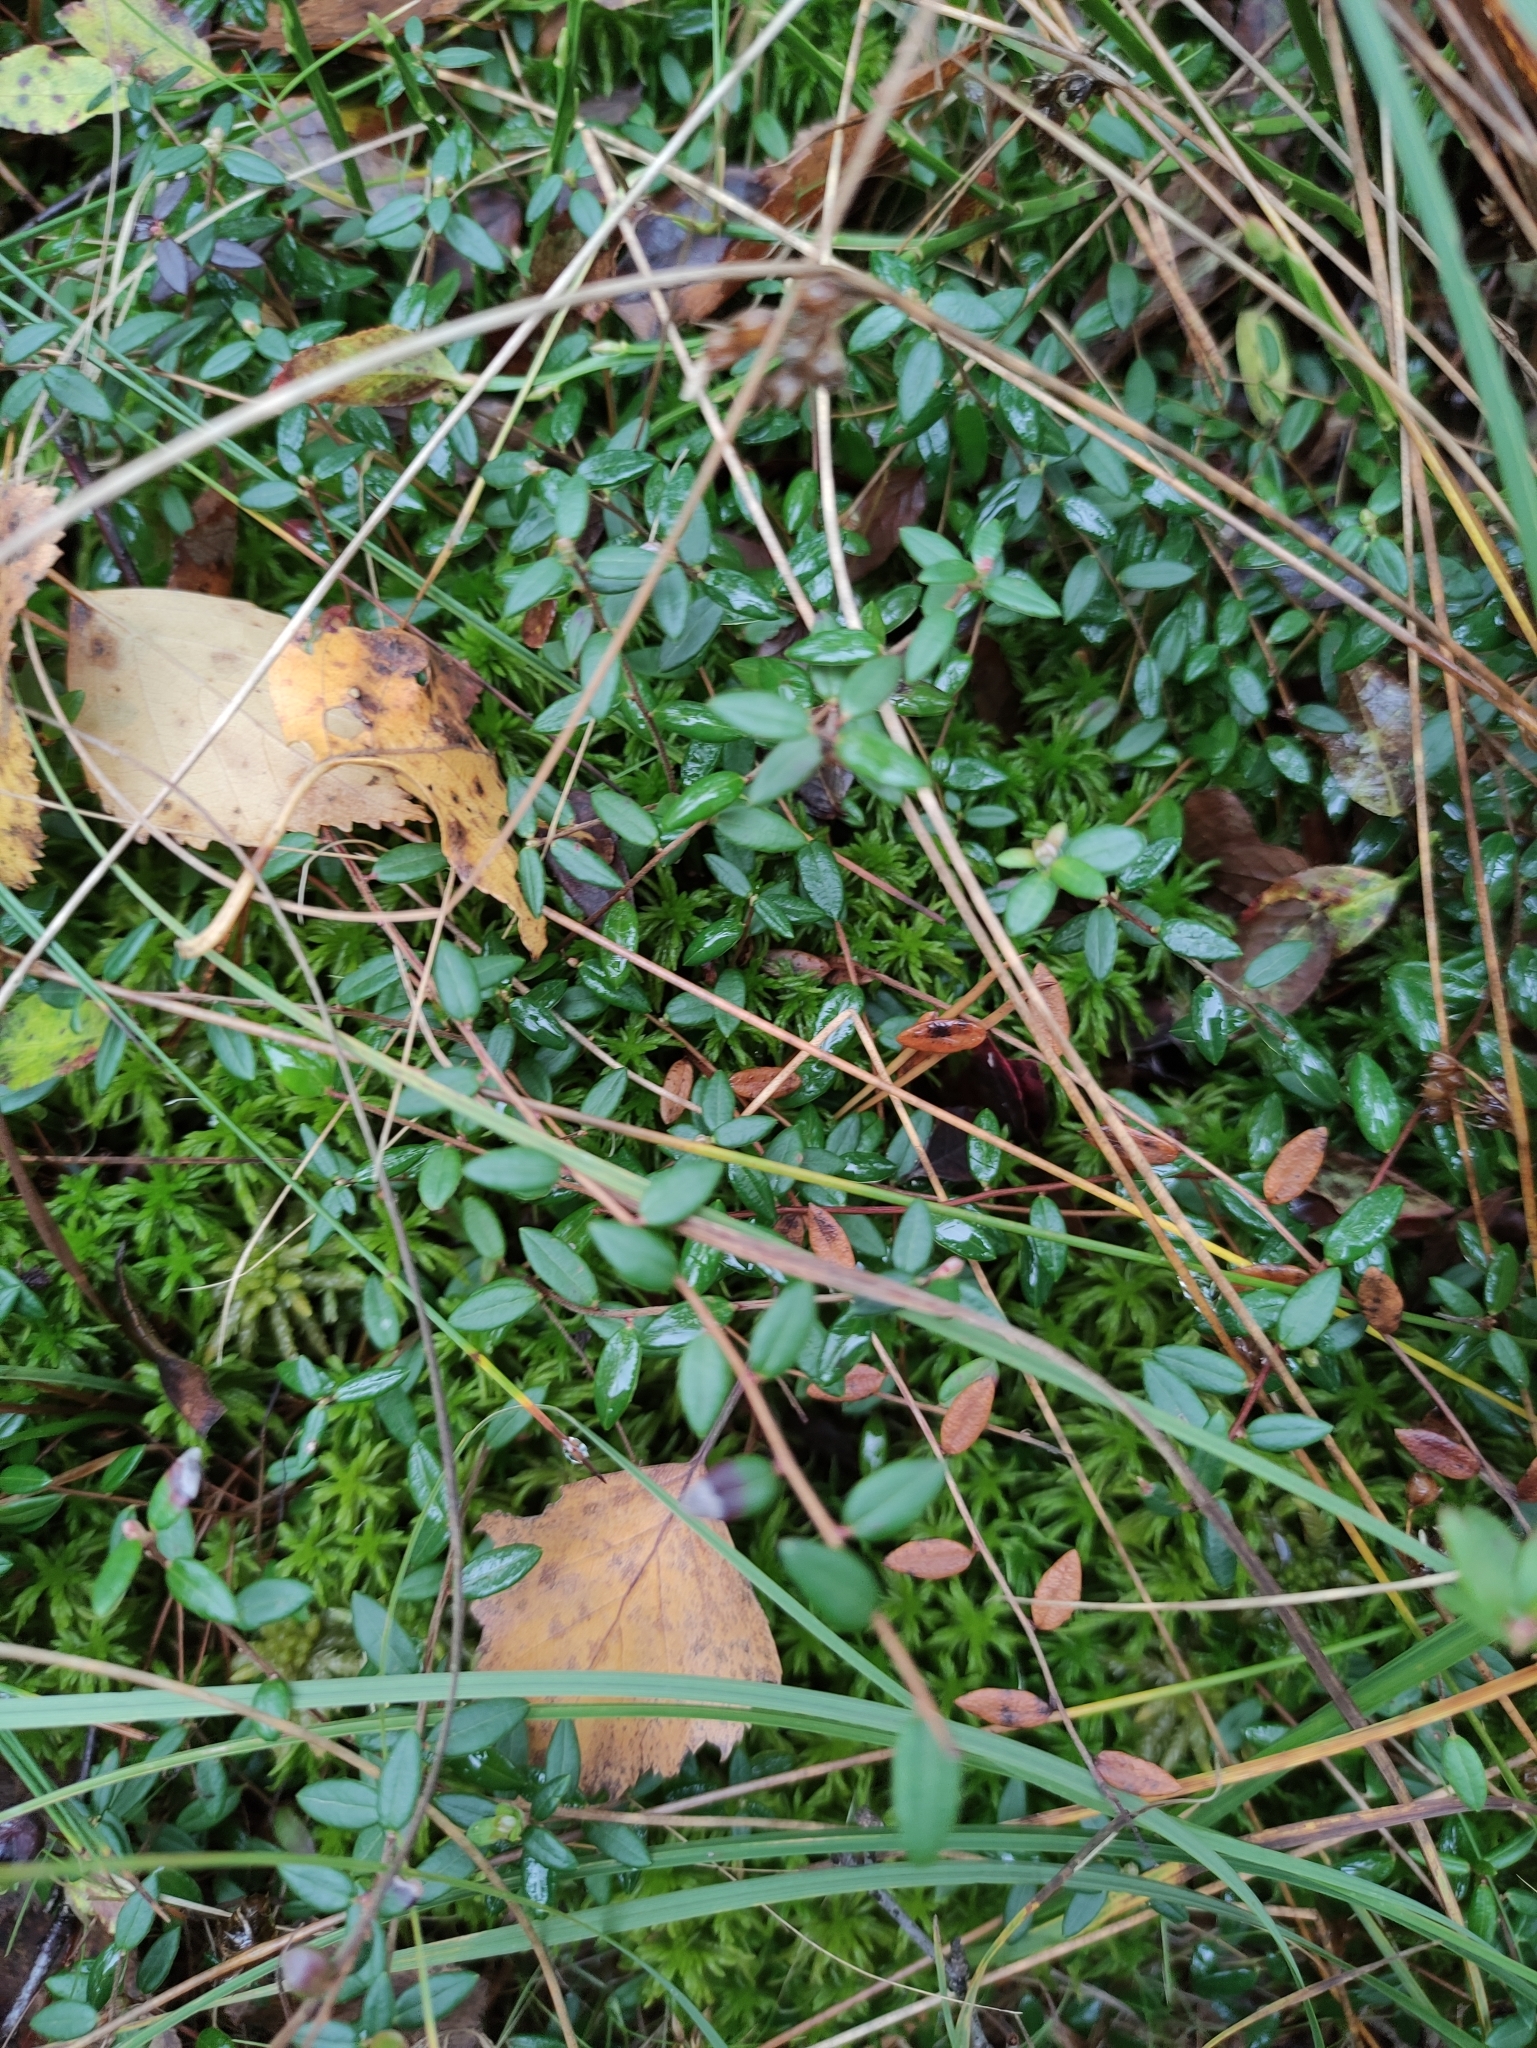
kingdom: Plantae
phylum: Tracheophyta
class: Magnoliopsida
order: Ericales
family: Ericaceae
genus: Vaccinium
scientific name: Vaccinium oxycoccos
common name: Cranberry
